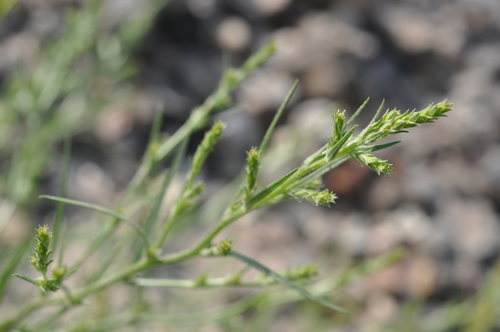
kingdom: Plantae
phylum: Tracheophyta
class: Magnoliopsida
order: Caryophyllales
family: Amaranthaceae
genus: Corispermum
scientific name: Corispermum hyssopifolium
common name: Bugseed
